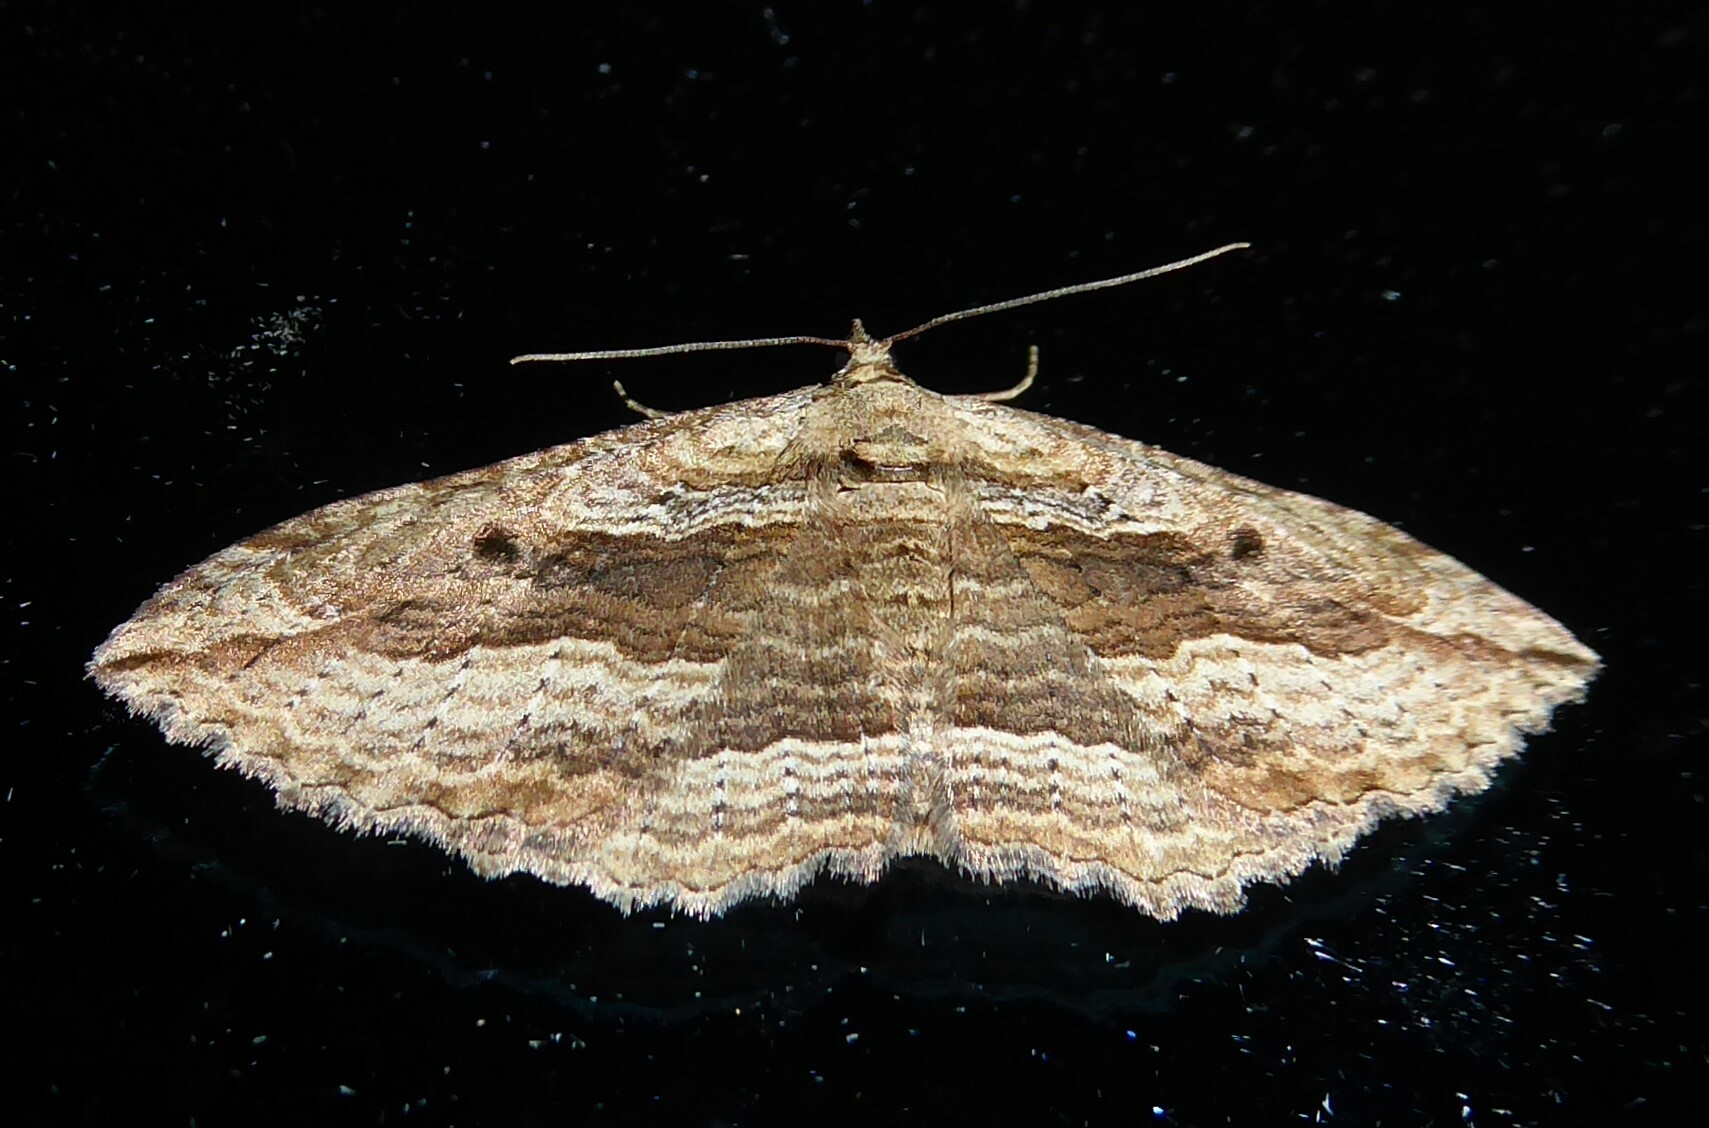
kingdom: Animalia
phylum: Arthropoda
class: Insecta
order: Lepidoptera
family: Geometridae
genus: Austrocidaria
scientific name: Austrocidaria gobiata
